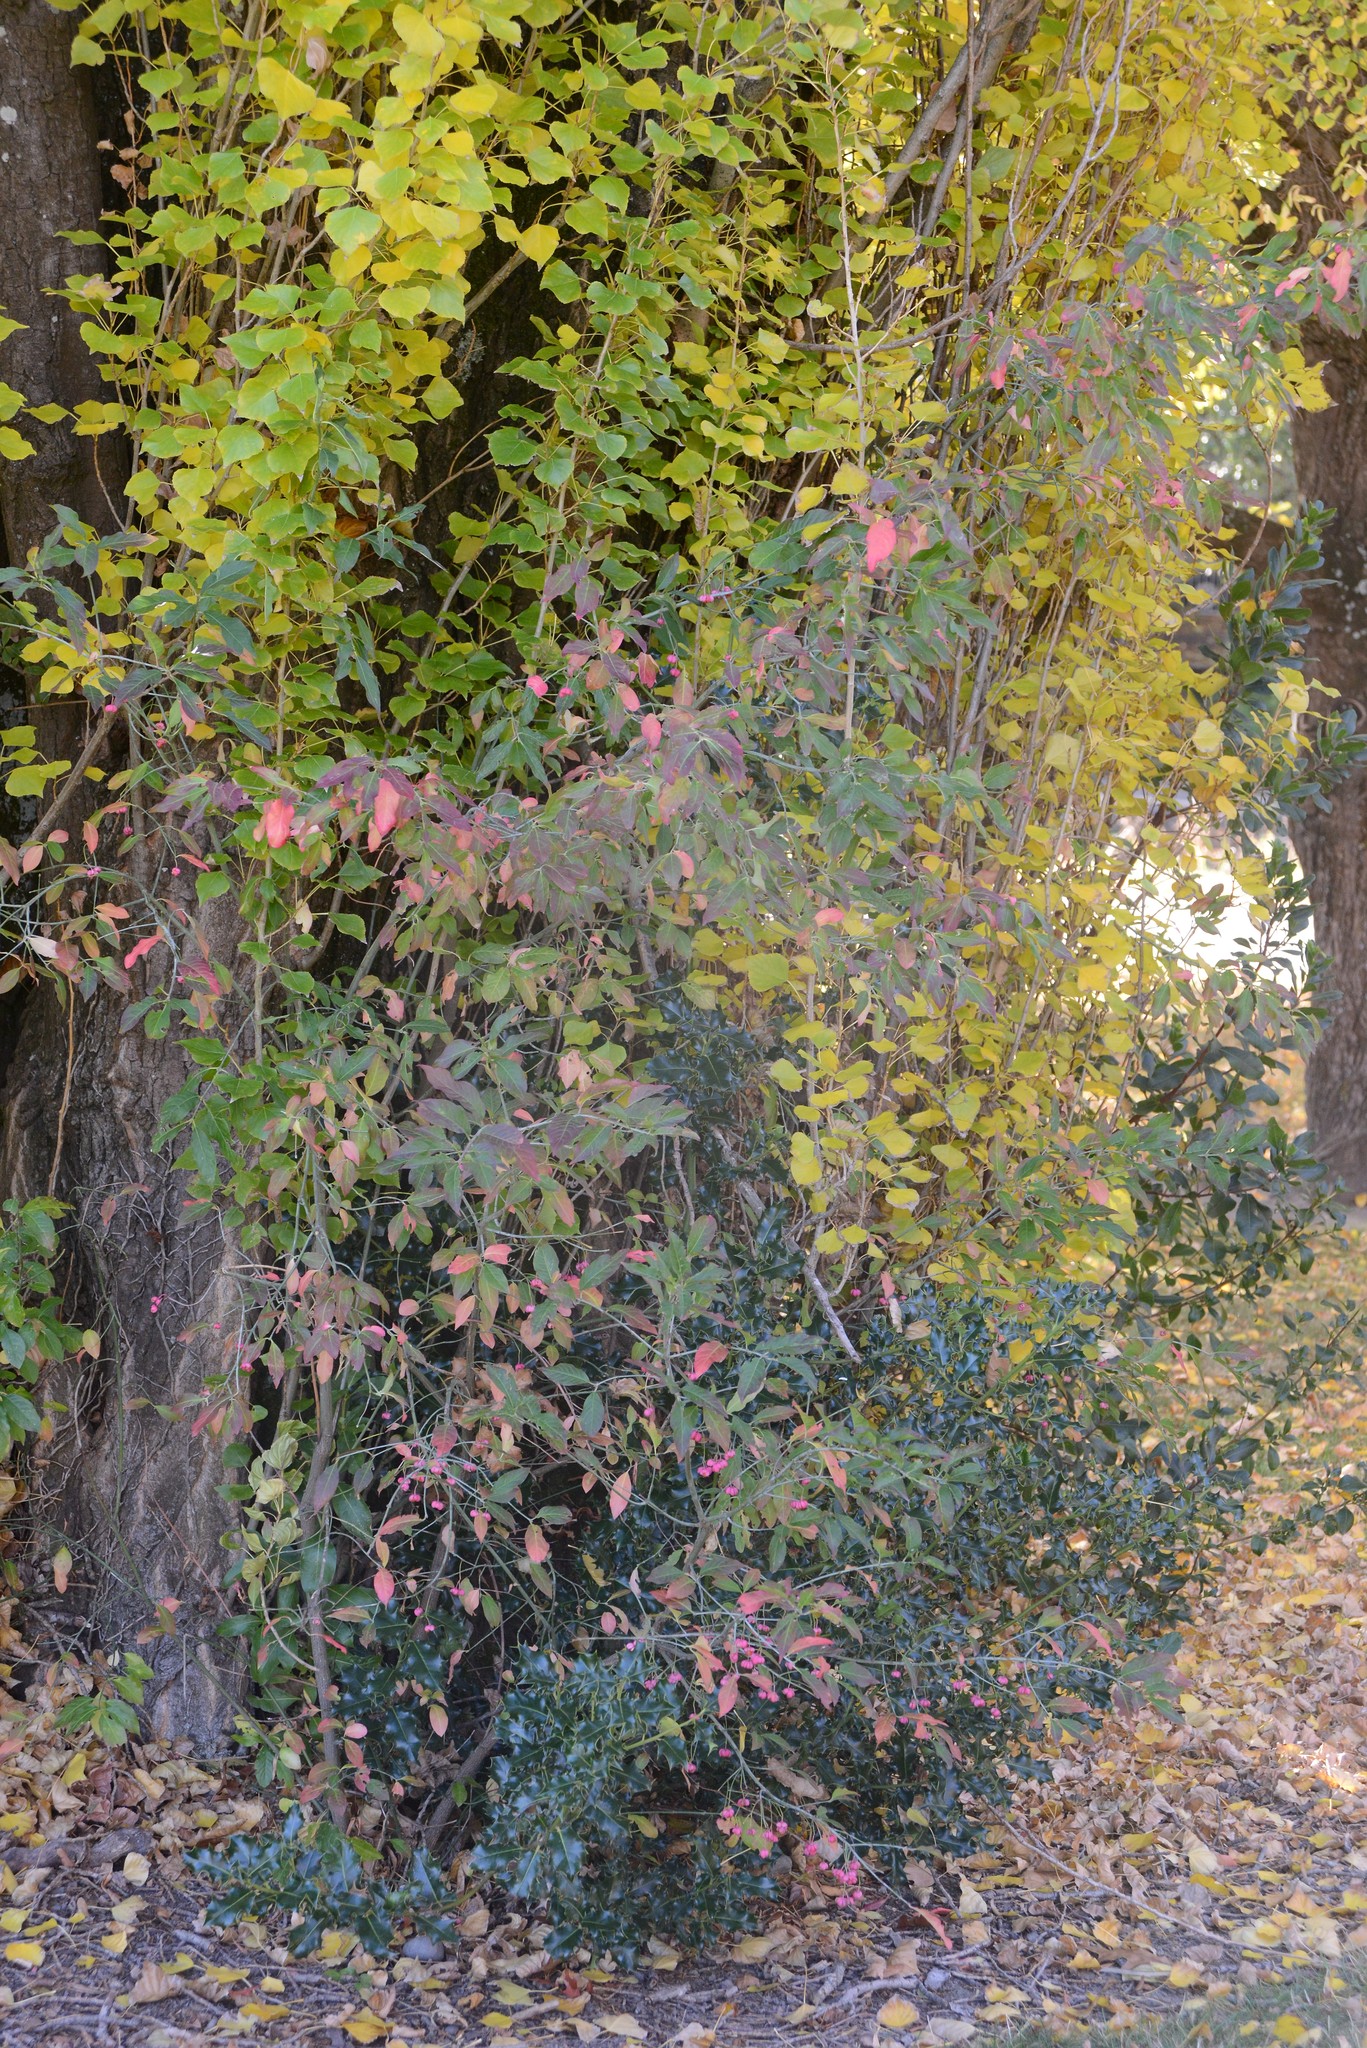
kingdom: Plantae
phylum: Tracheophyta
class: Magnoliopsida
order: Celastrales
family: Celastraceae
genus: Euonymus
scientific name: Euonymus europaeus
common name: Spindle
